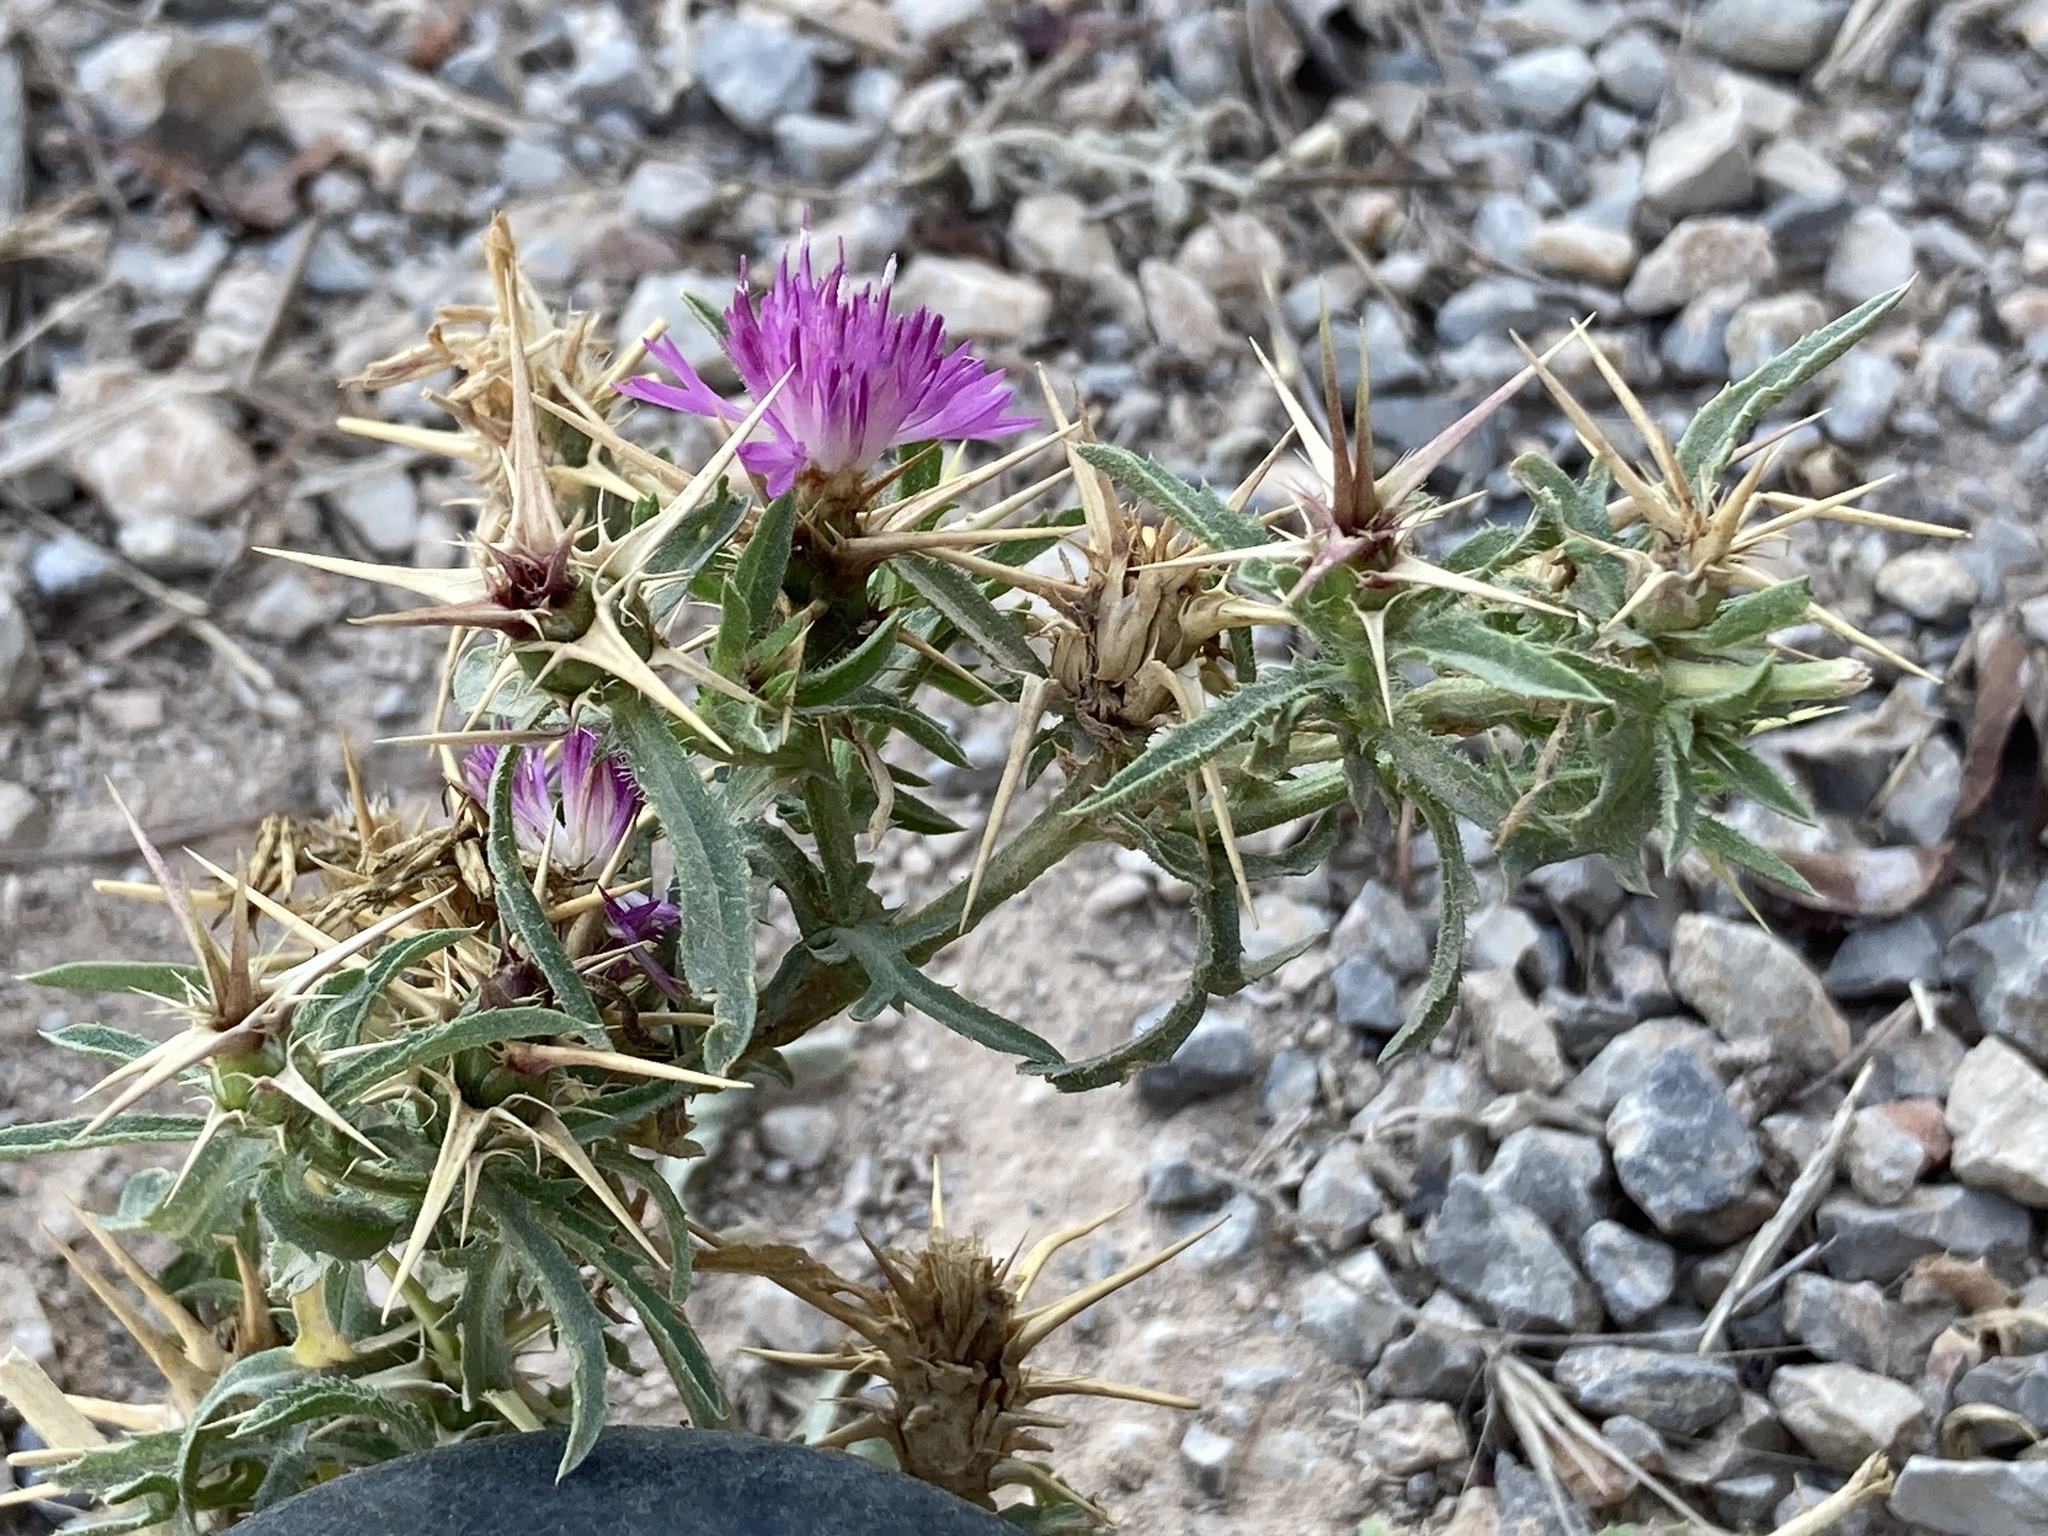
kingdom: Plantae
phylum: Tracheophyta
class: Magnoliopsida
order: Asterales
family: Asteraceae
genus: Centaurea
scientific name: Centaurea calcitrapa
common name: Red star-thistle
